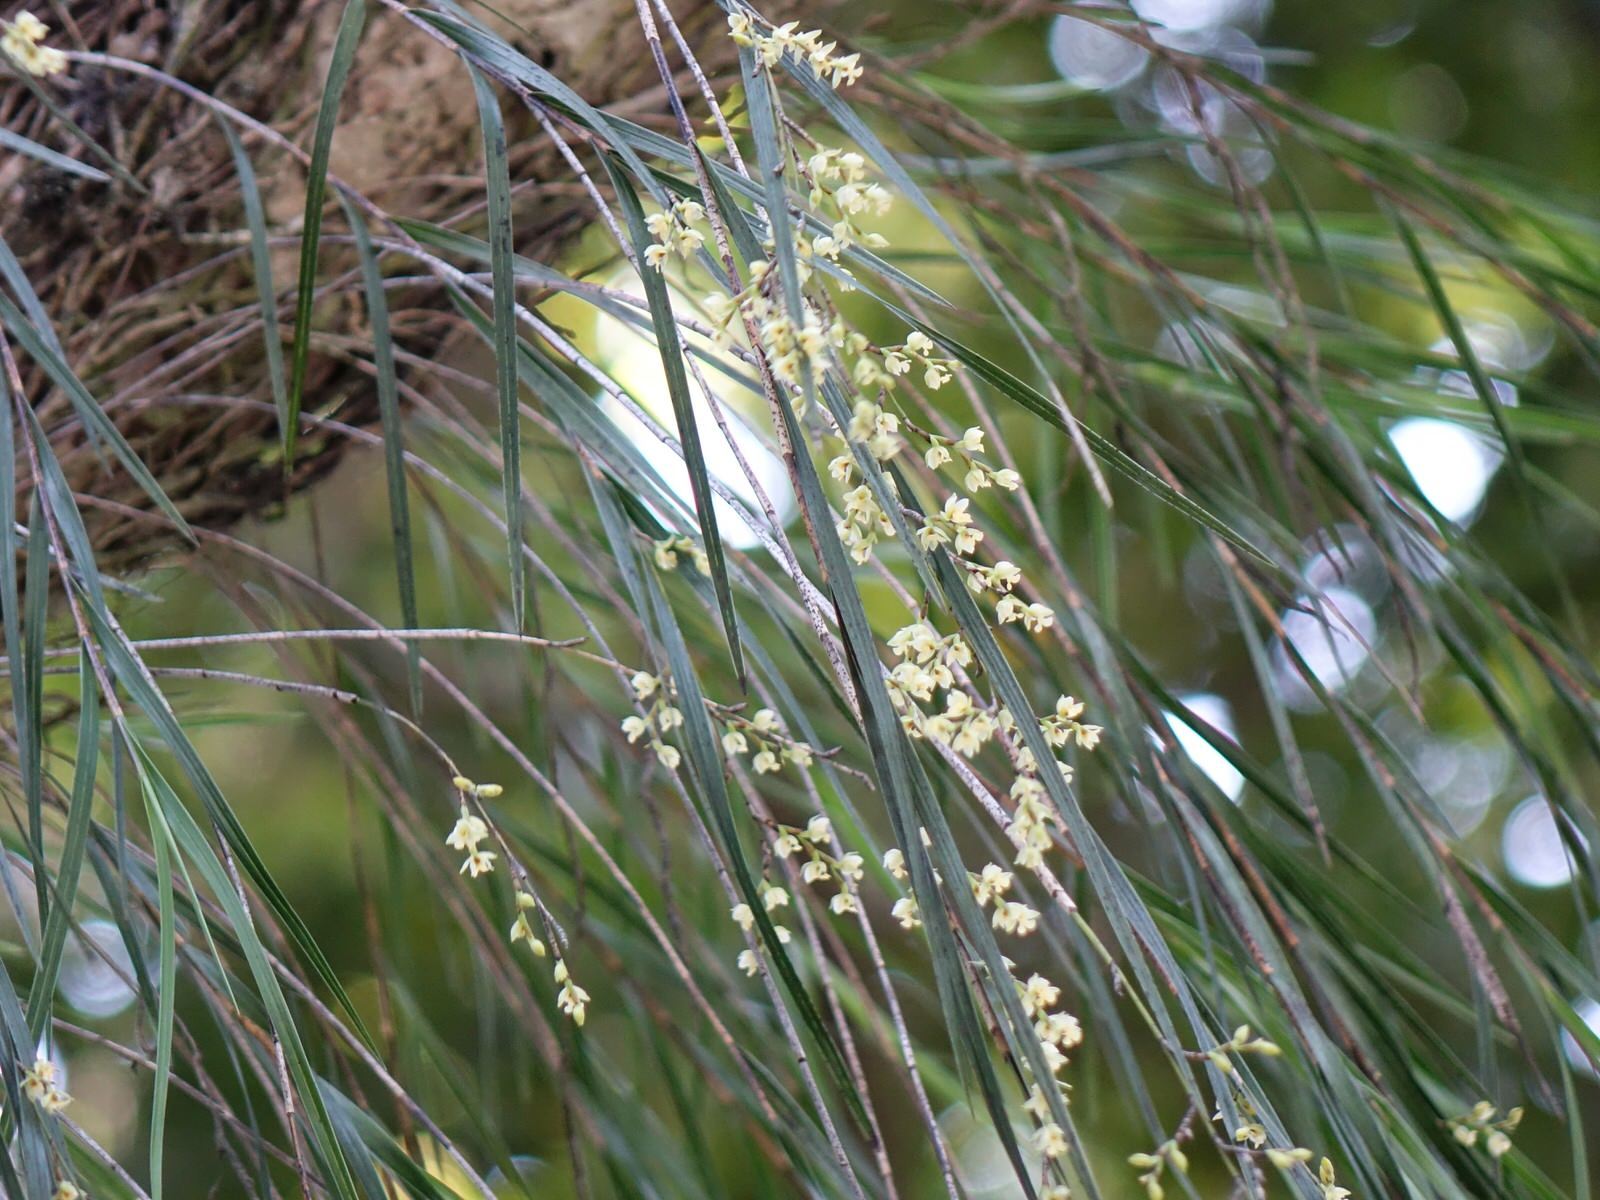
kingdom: Plantae
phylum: Tracheophyta
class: Liliopsida
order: Asparagales
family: Orchidaceae
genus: Earina
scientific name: Earina mucronata
